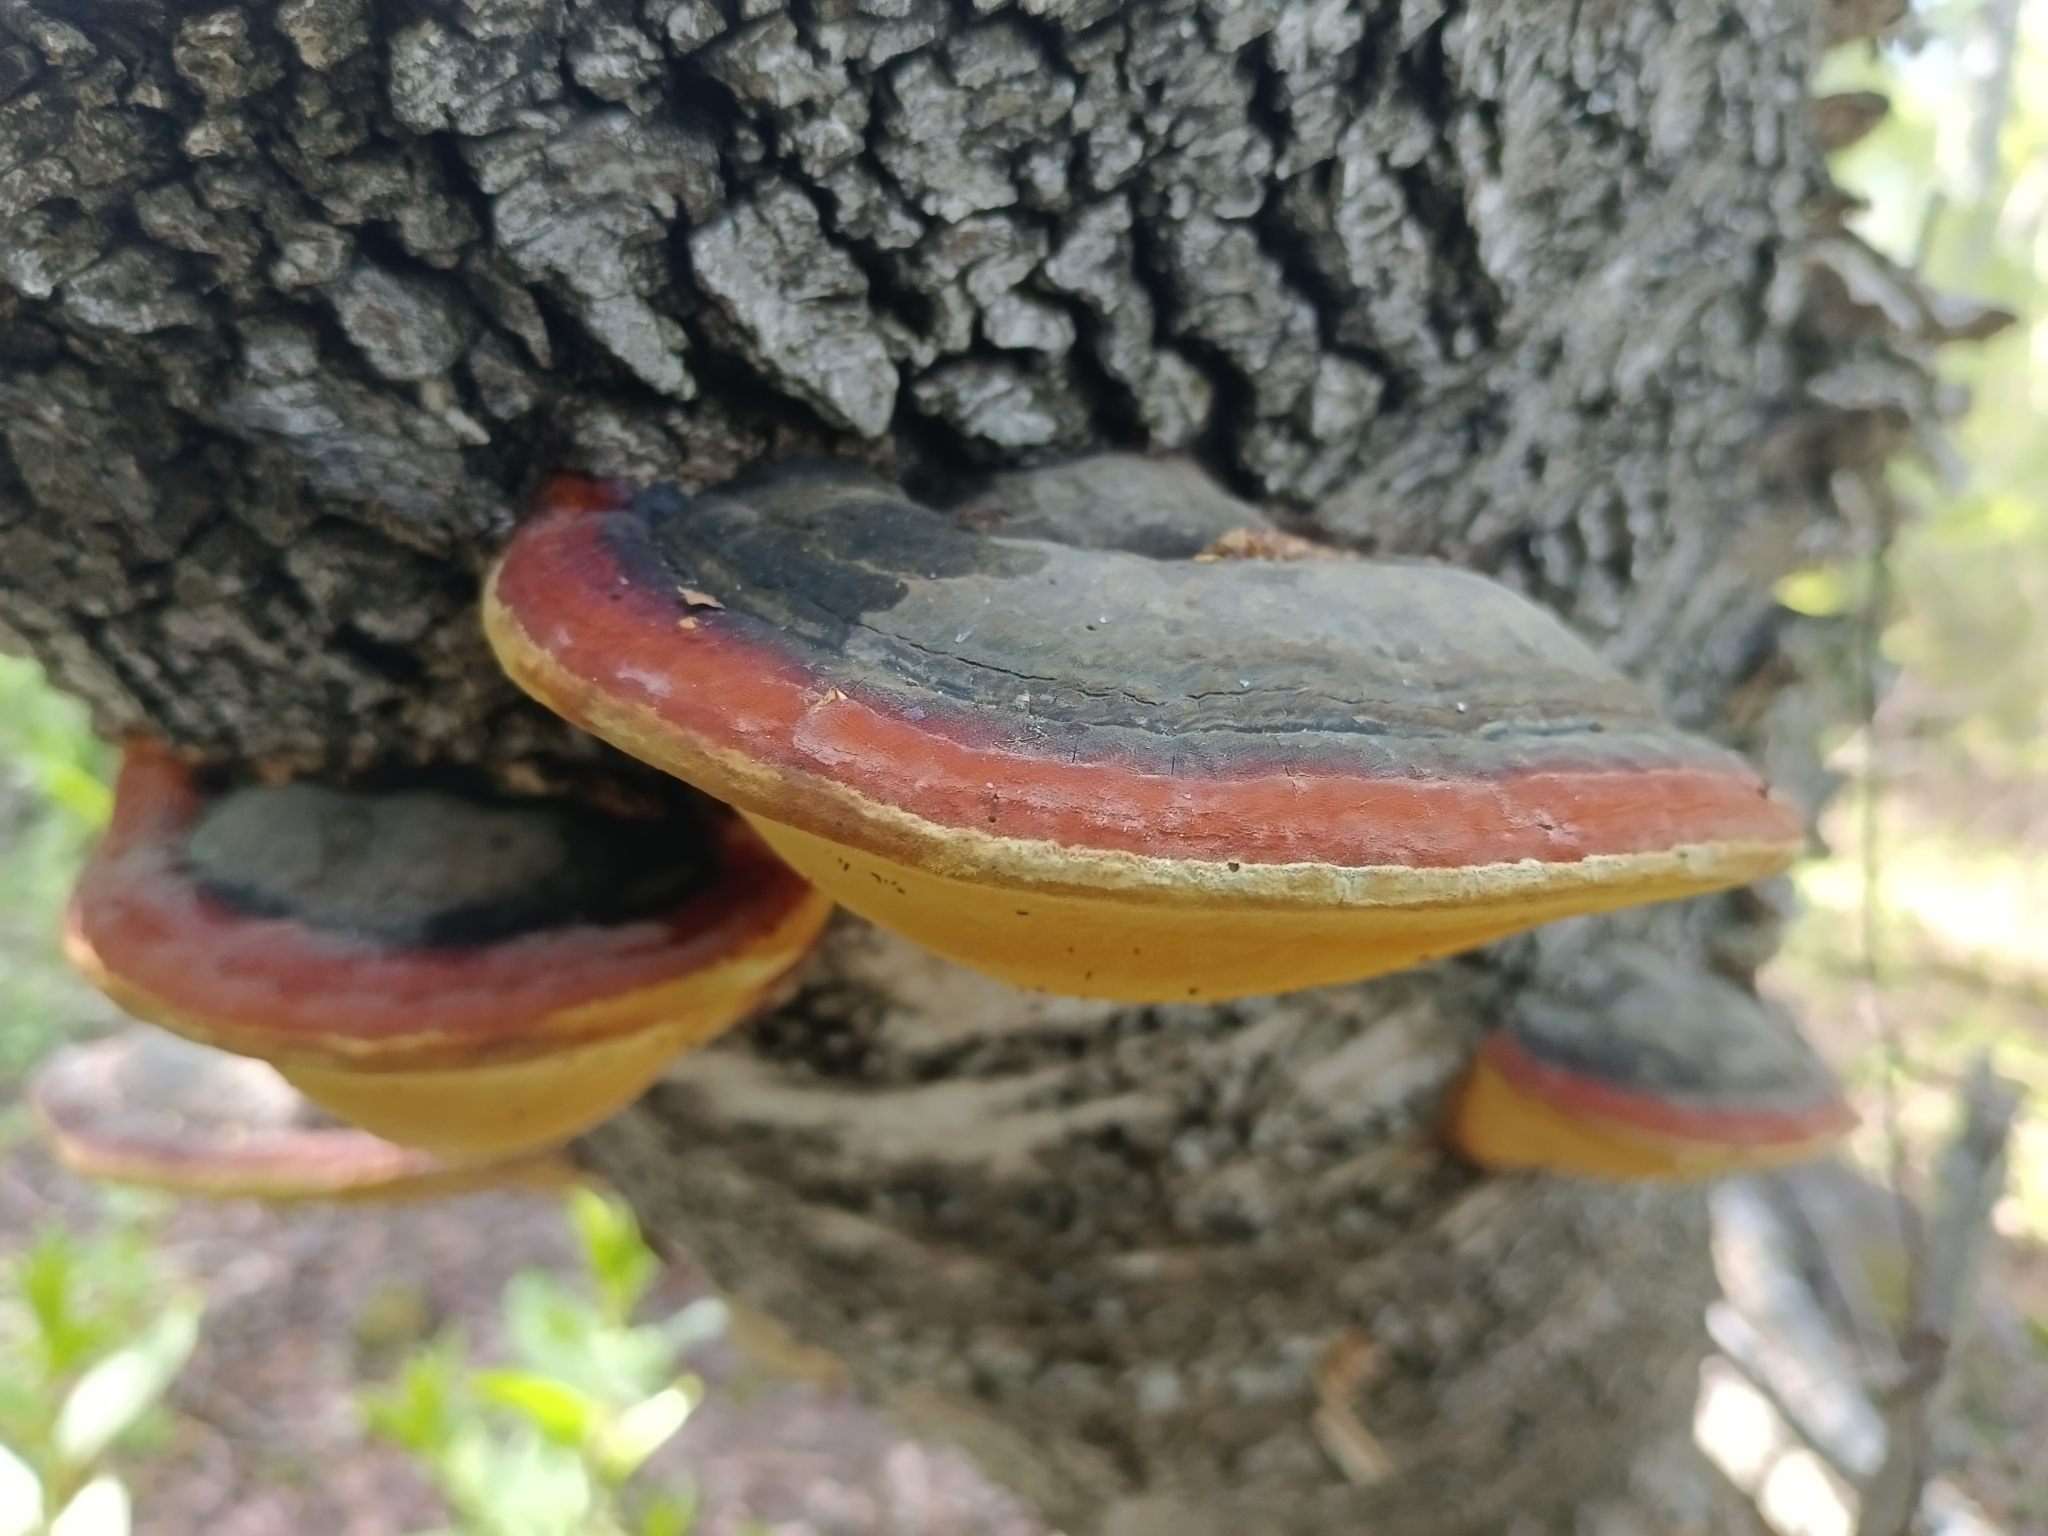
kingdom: Fungi
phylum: Basidiomycota
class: Agaricomycetes
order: Polyporales
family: Fomitopsidaceae
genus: Fomitopsis
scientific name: Fomitopsis pinicola
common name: Red-belted bracket
